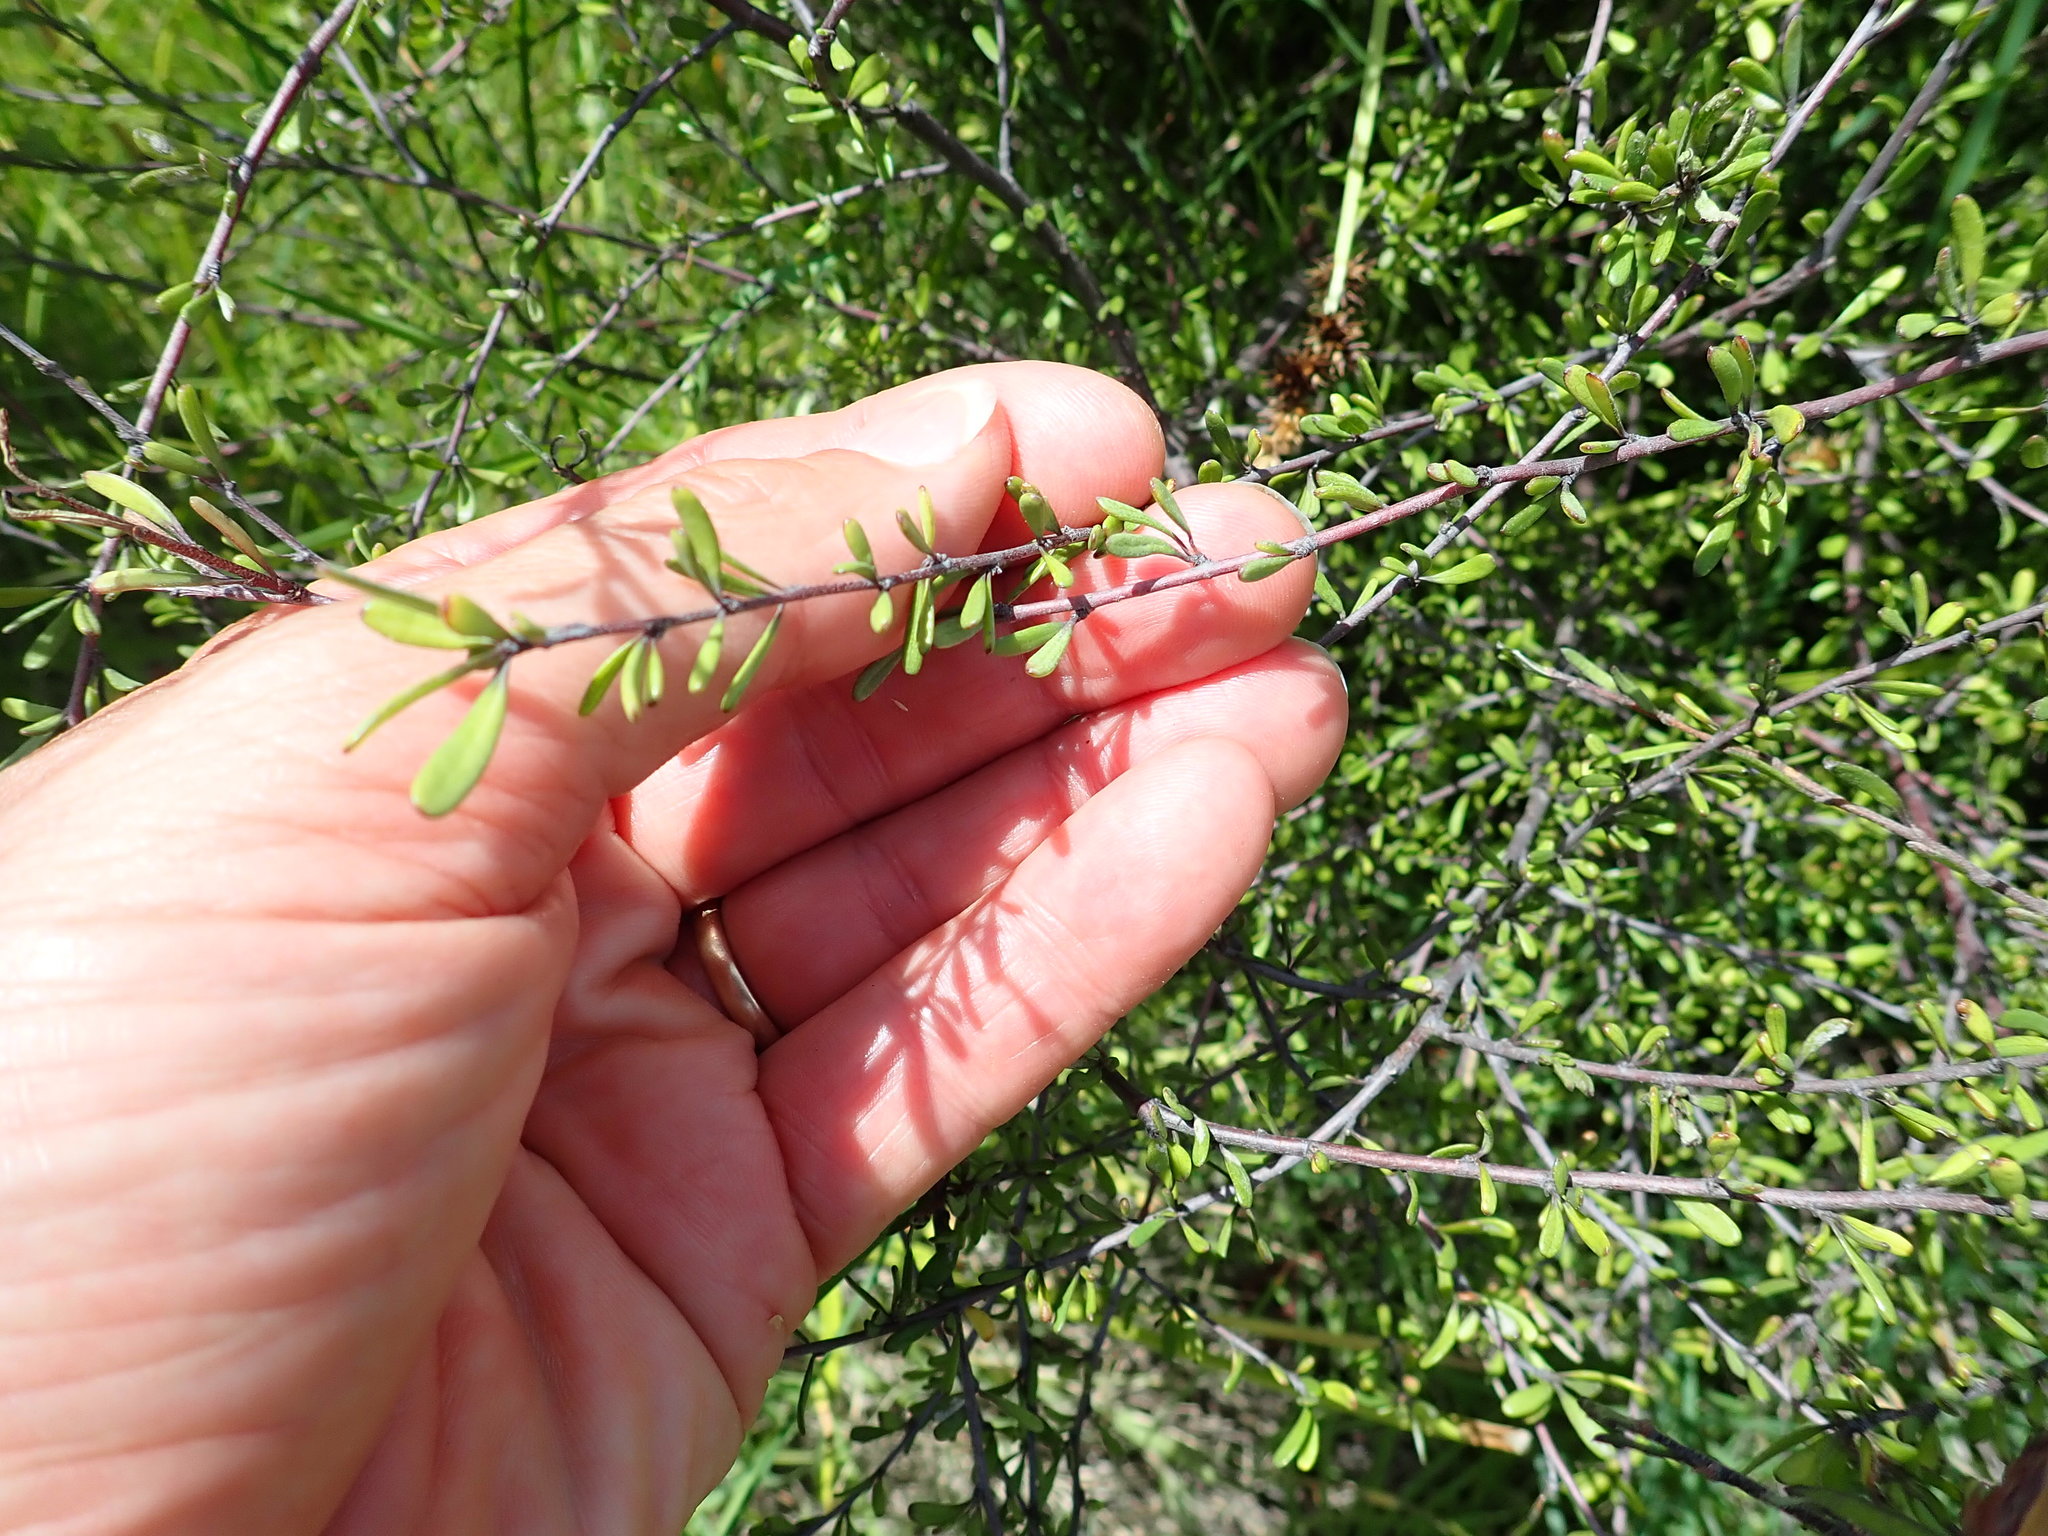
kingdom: Plantae
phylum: Tracheophyta
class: Magnoliopsida
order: Malvales
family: Malvaceae
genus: Plagianthus
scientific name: Plagianthus divaricatus
